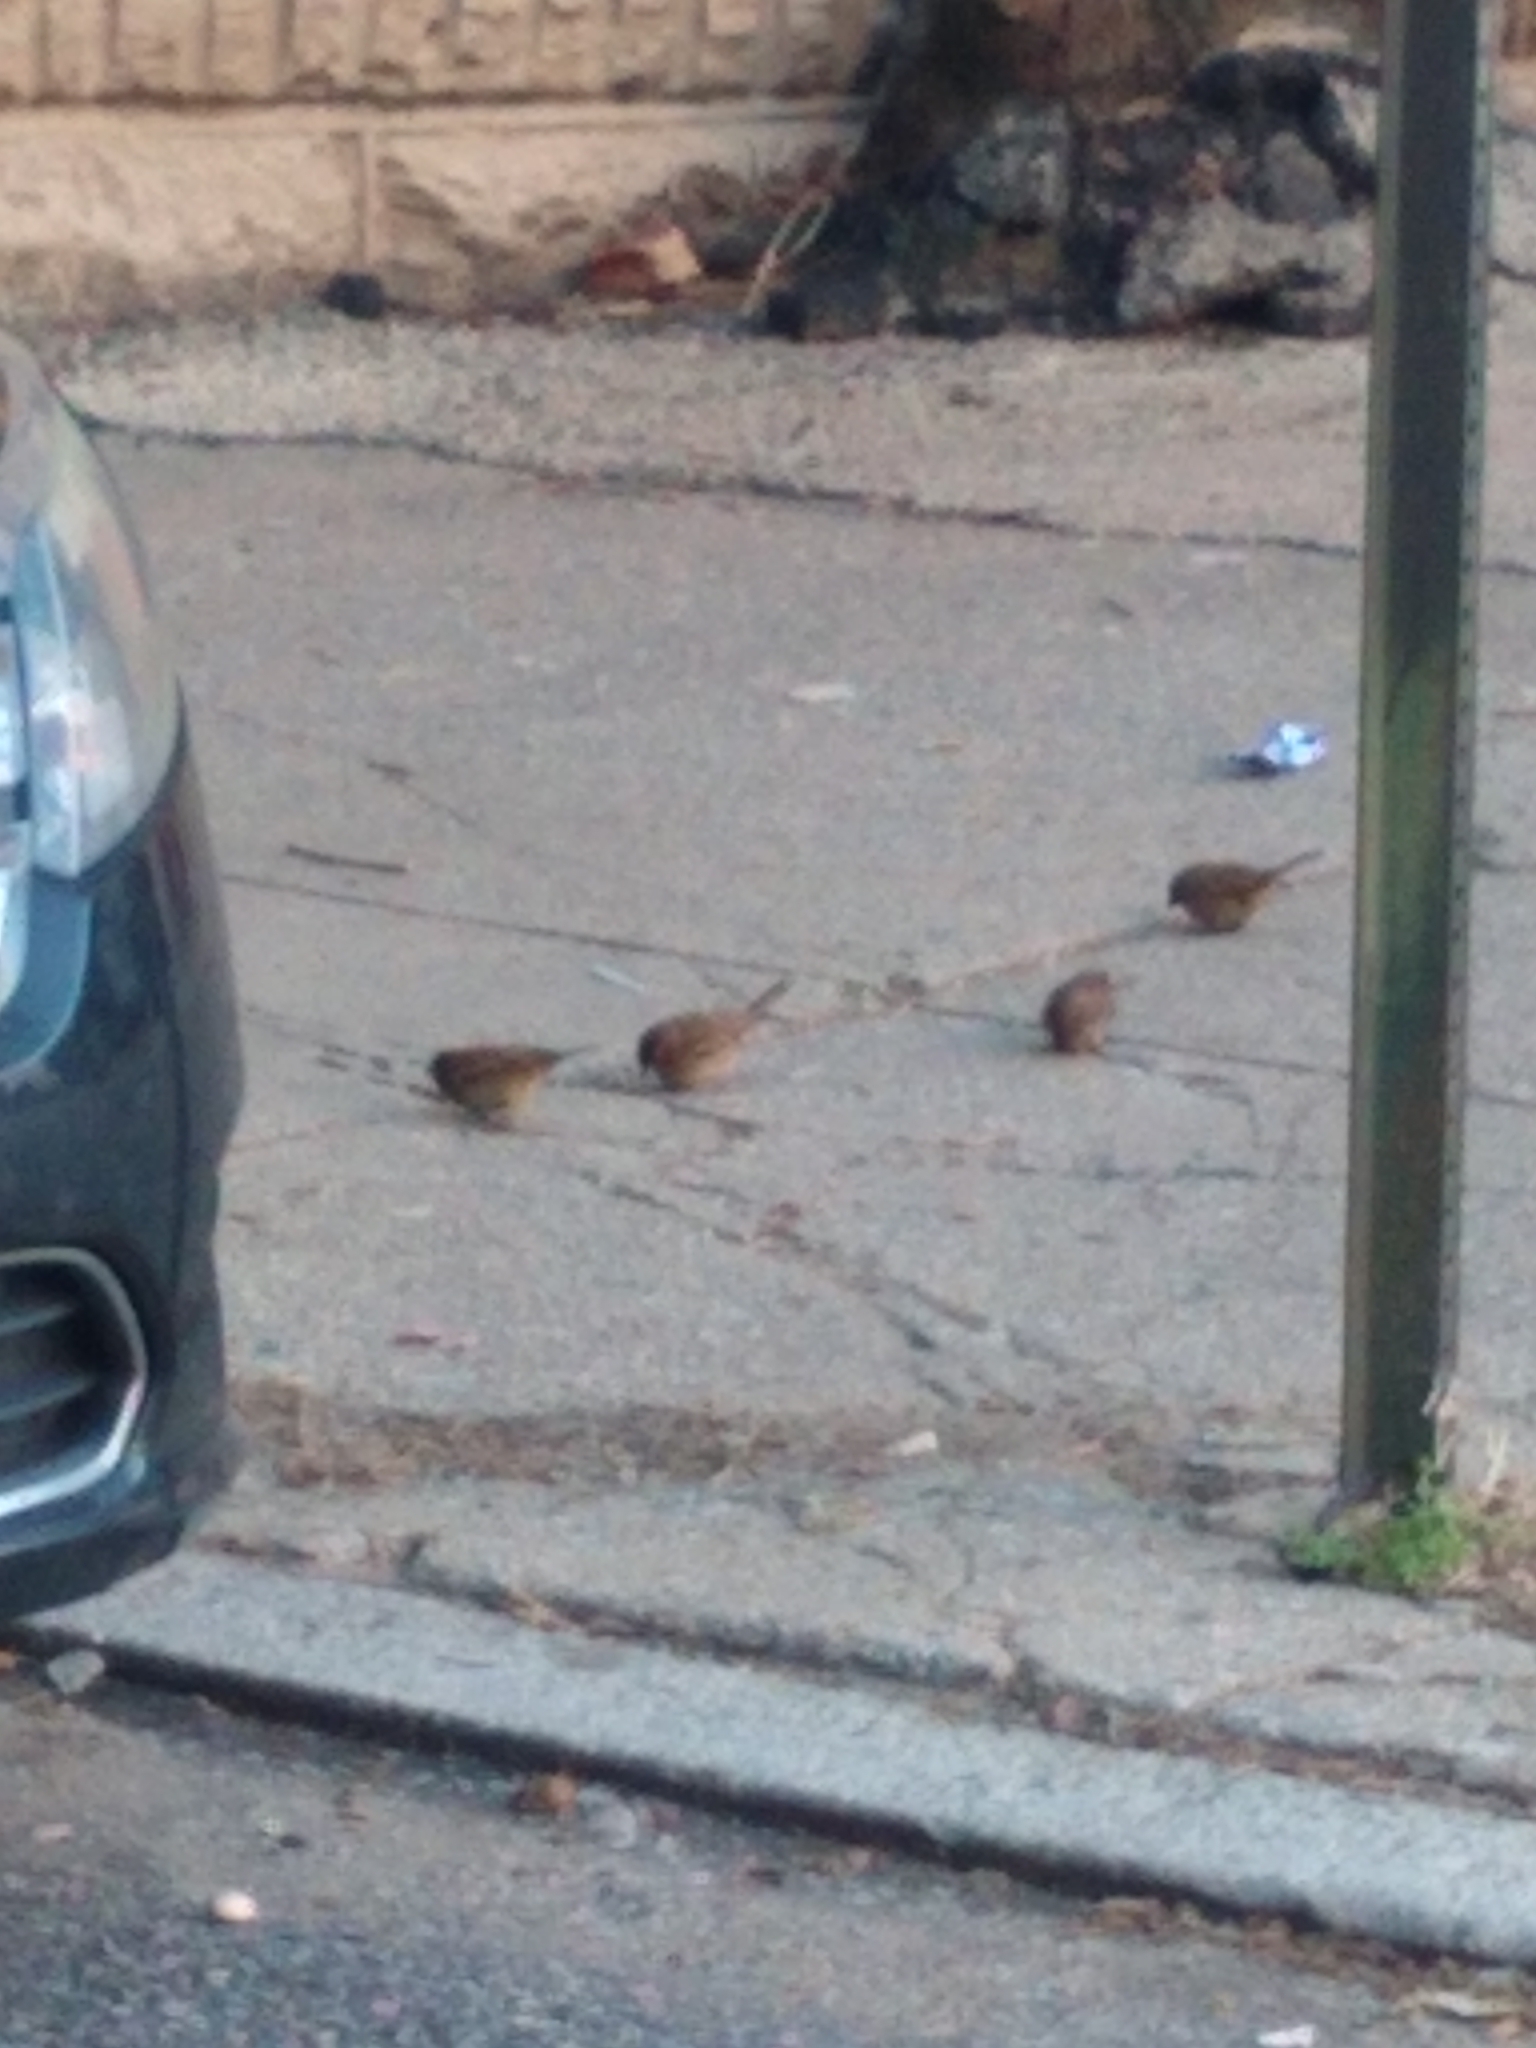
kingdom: Animalia
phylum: Chordata
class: Aves
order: Passeriformes
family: Passeridae
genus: Passer
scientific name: Passer domesticus
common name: House sparrow
